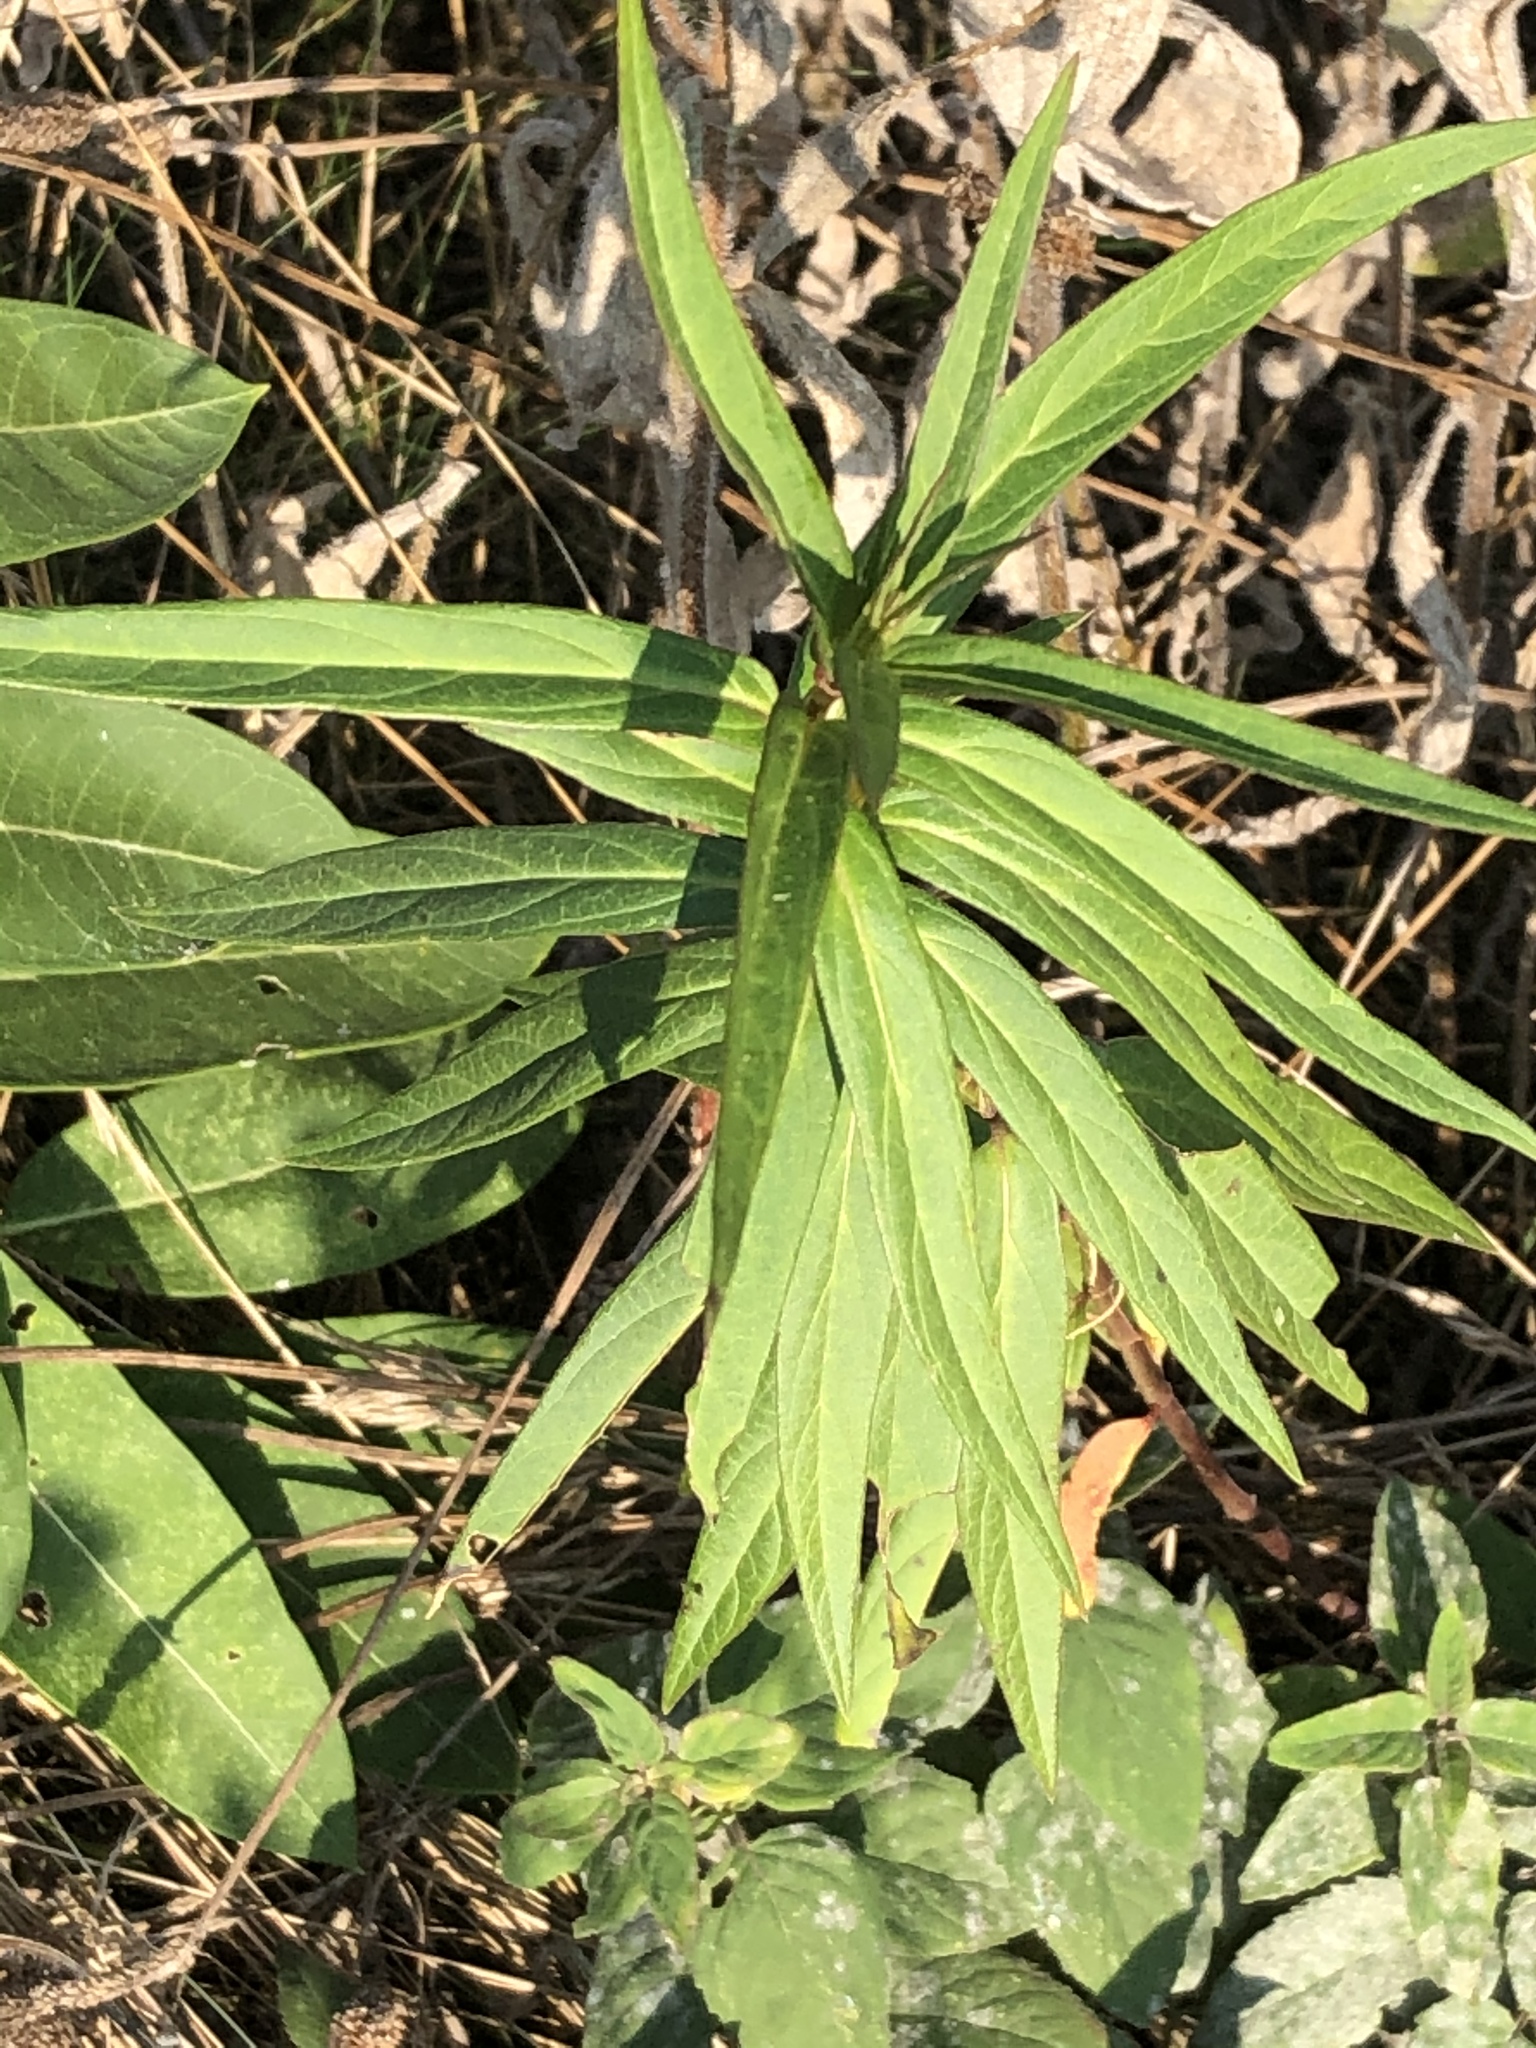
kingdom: Plantae
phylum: Tracheophyta
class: Magnoliopsida
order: Gentianales
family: Apocynaceae
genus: Asclepias
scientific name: Asclepias incarnata
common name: Swamp milkweed
